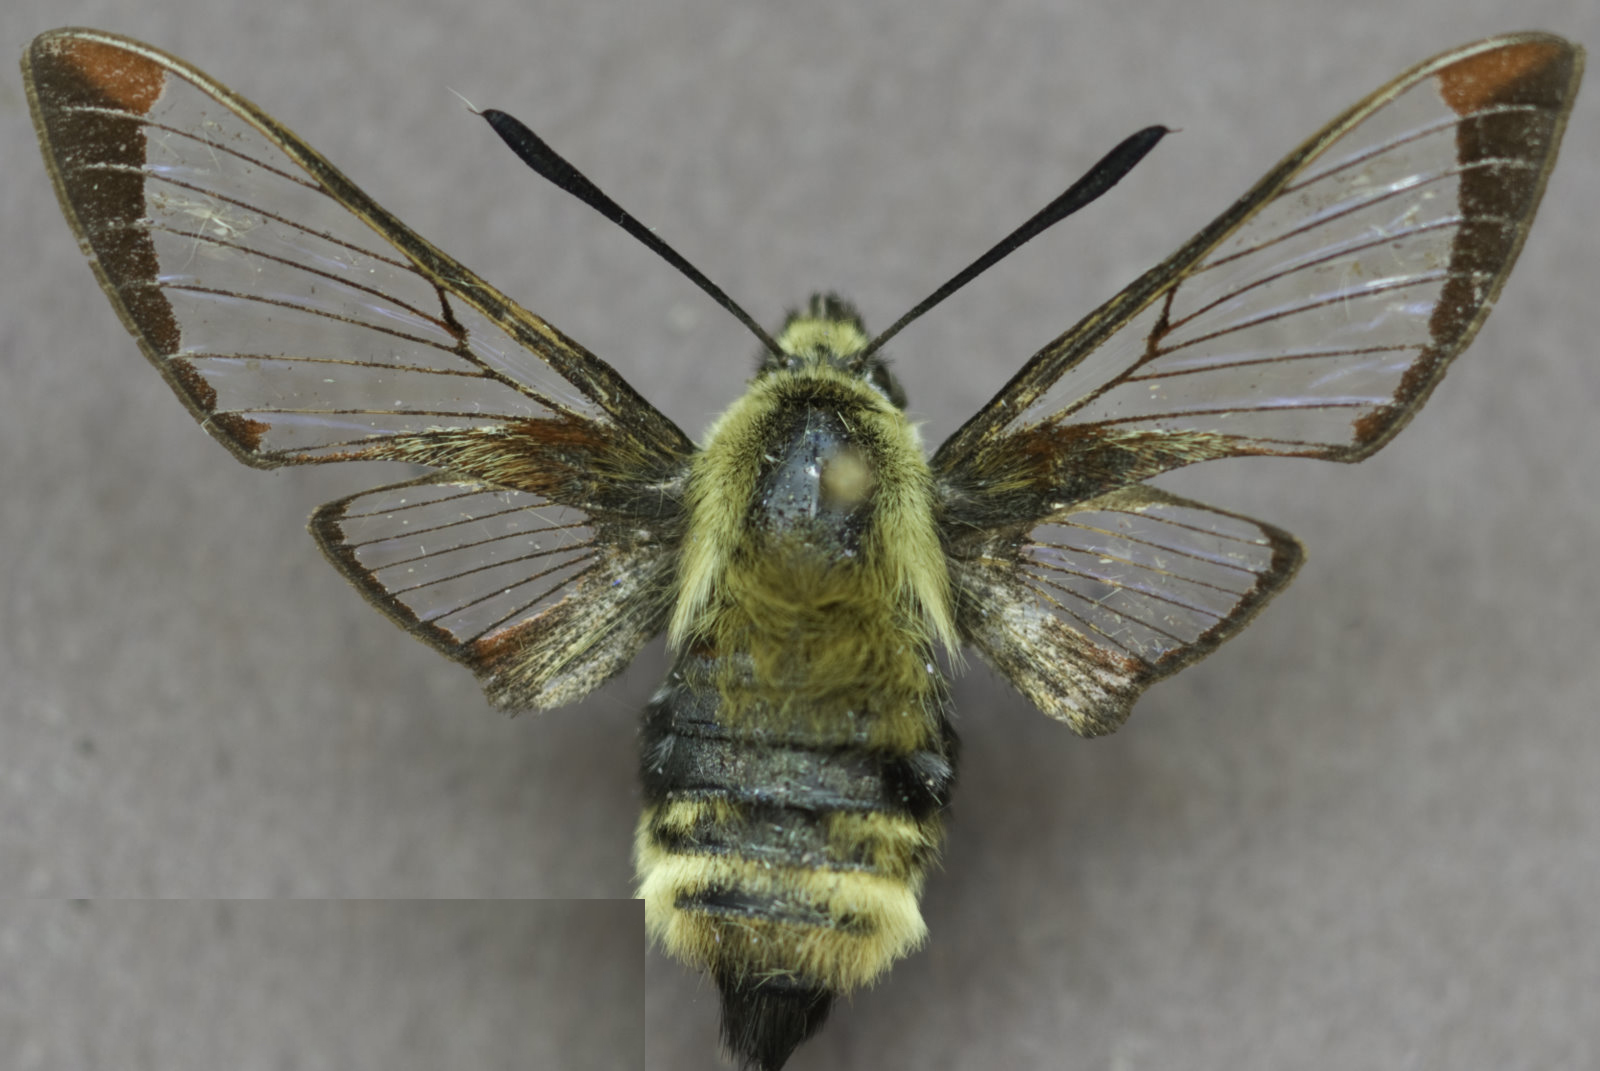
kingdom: Animalia
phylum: Arthropoda
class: Insecta
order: Lepidoptera
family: Sphingidae
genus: Hemaris
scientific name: Hemaris diffinis
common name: Bumblebee moth
